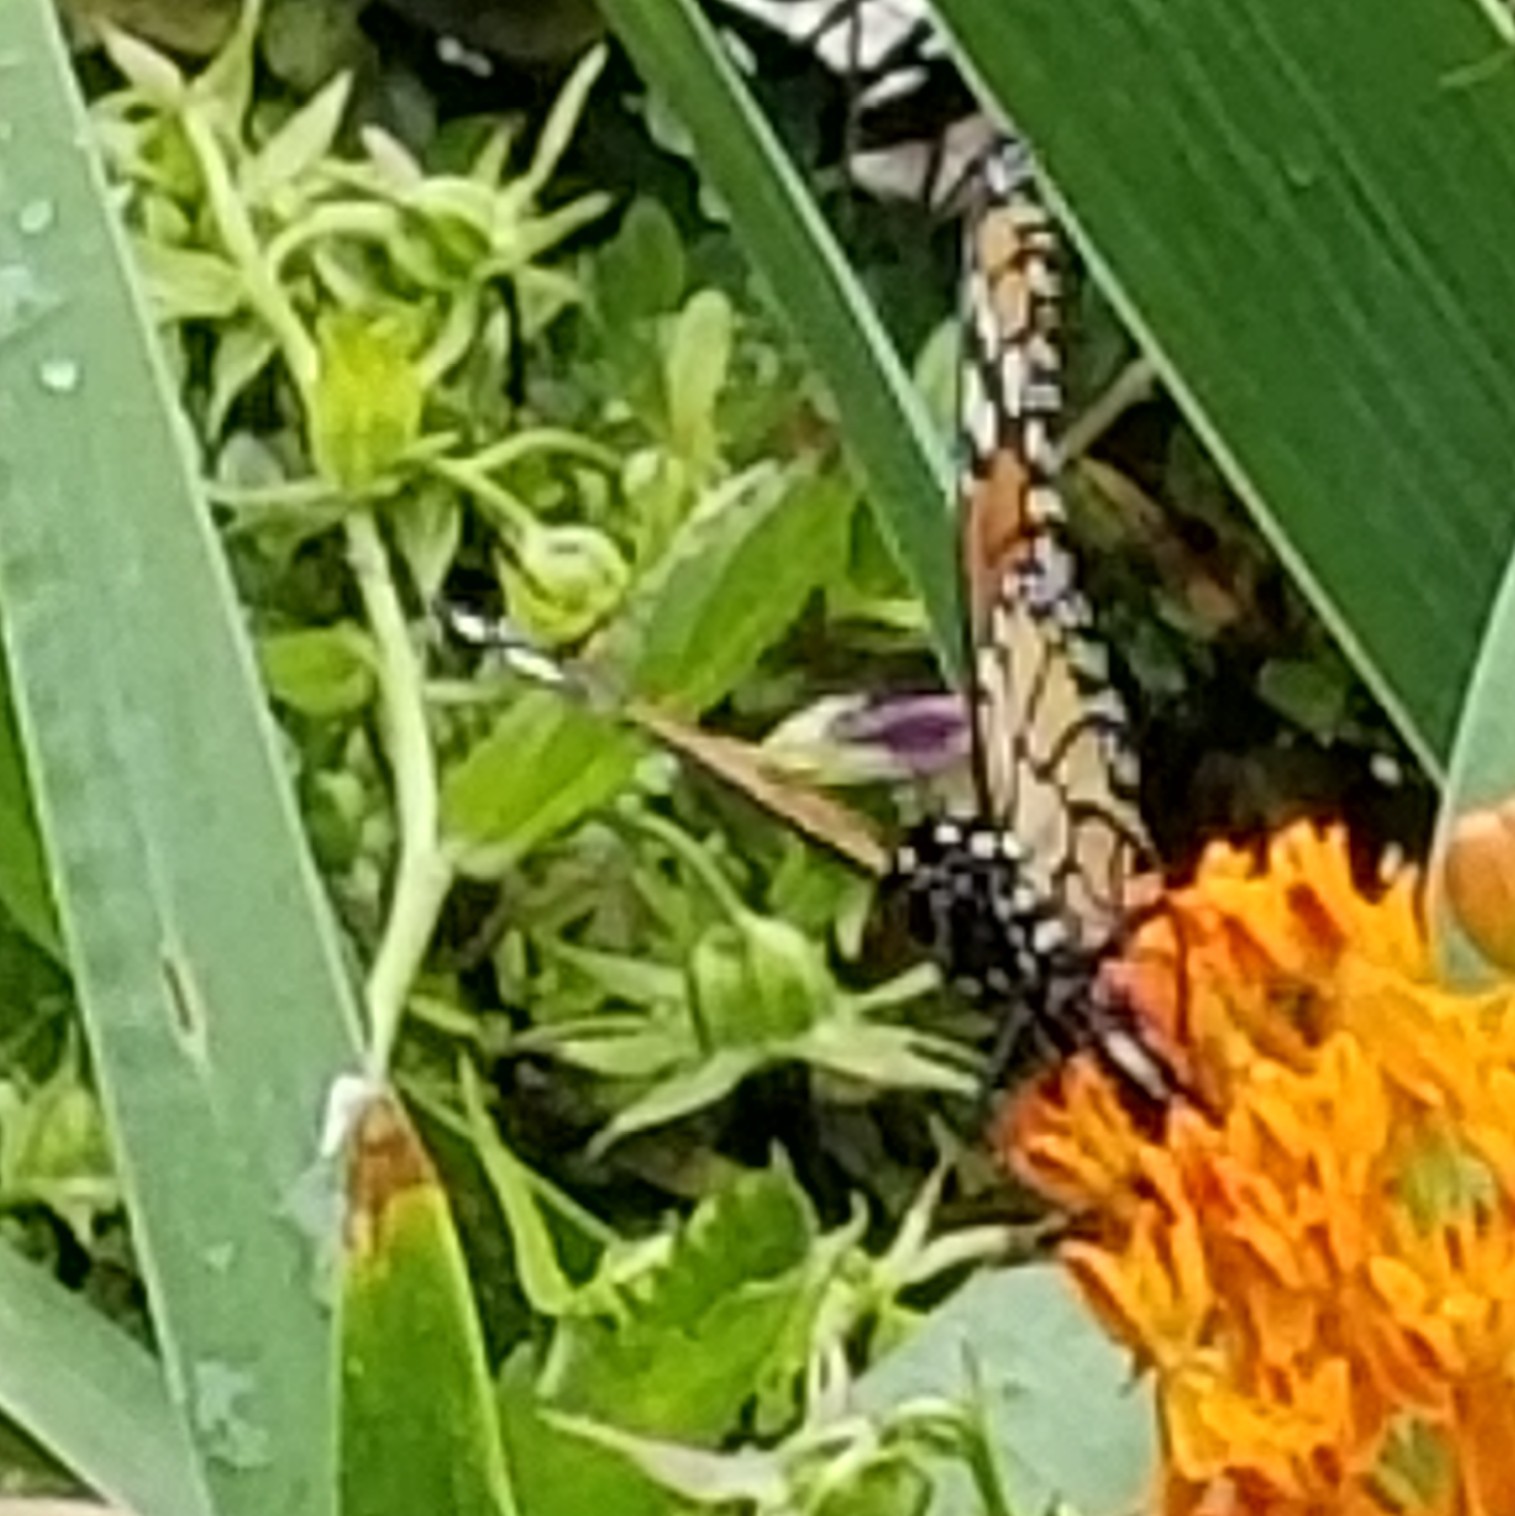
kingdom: Animalia
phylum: Arthropoda
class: Insecta
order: Lepidoptera
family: Nymphalidae
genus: Danaus
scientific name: Danaus plexippus
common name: Monarch
